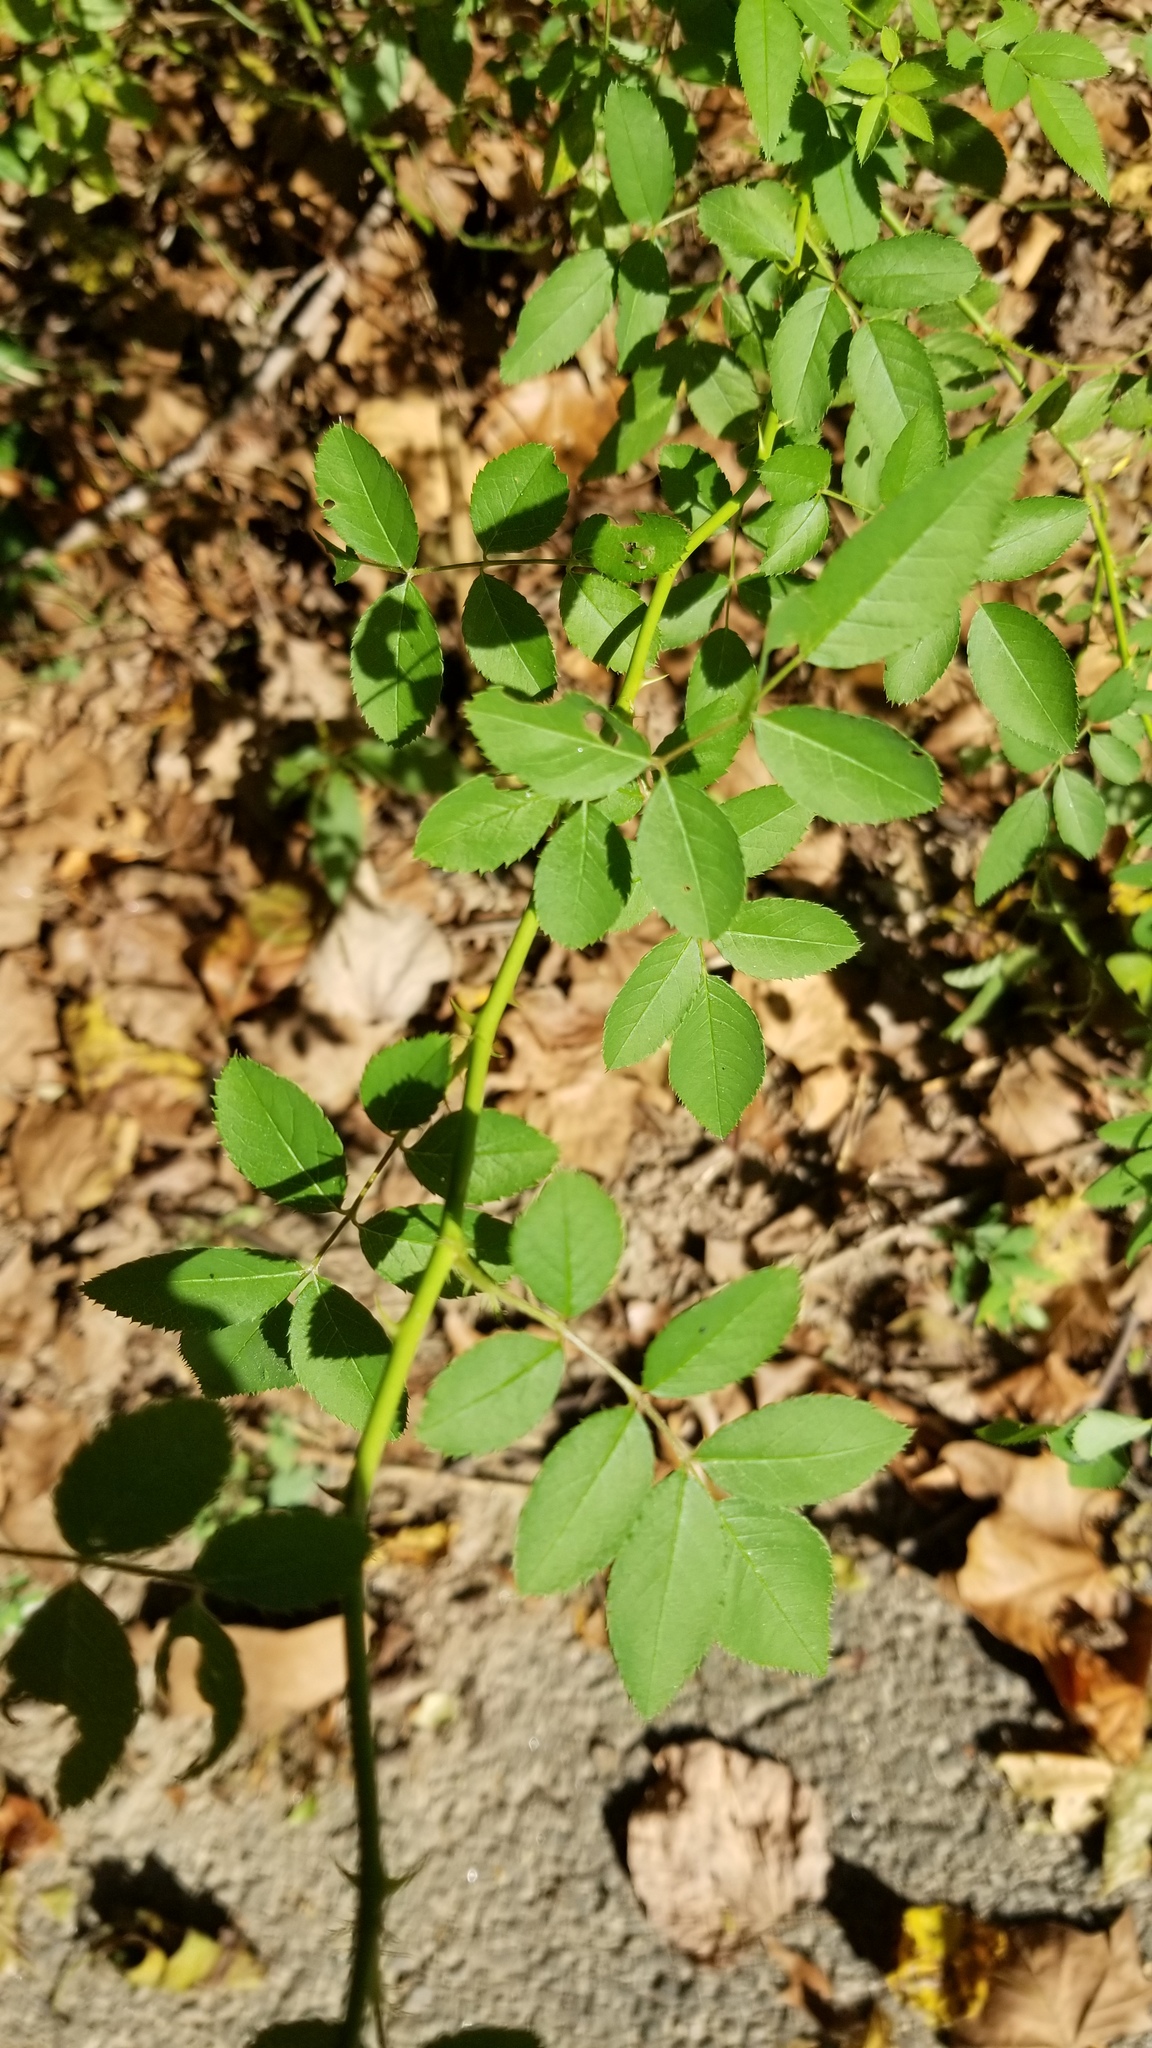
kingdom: Plantae
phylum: Tracheophyta
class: Magnoliopsida
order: Rosales
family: Rosaceae
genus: Rosa
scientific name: Rosa multiflora
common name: Multiflora rose
